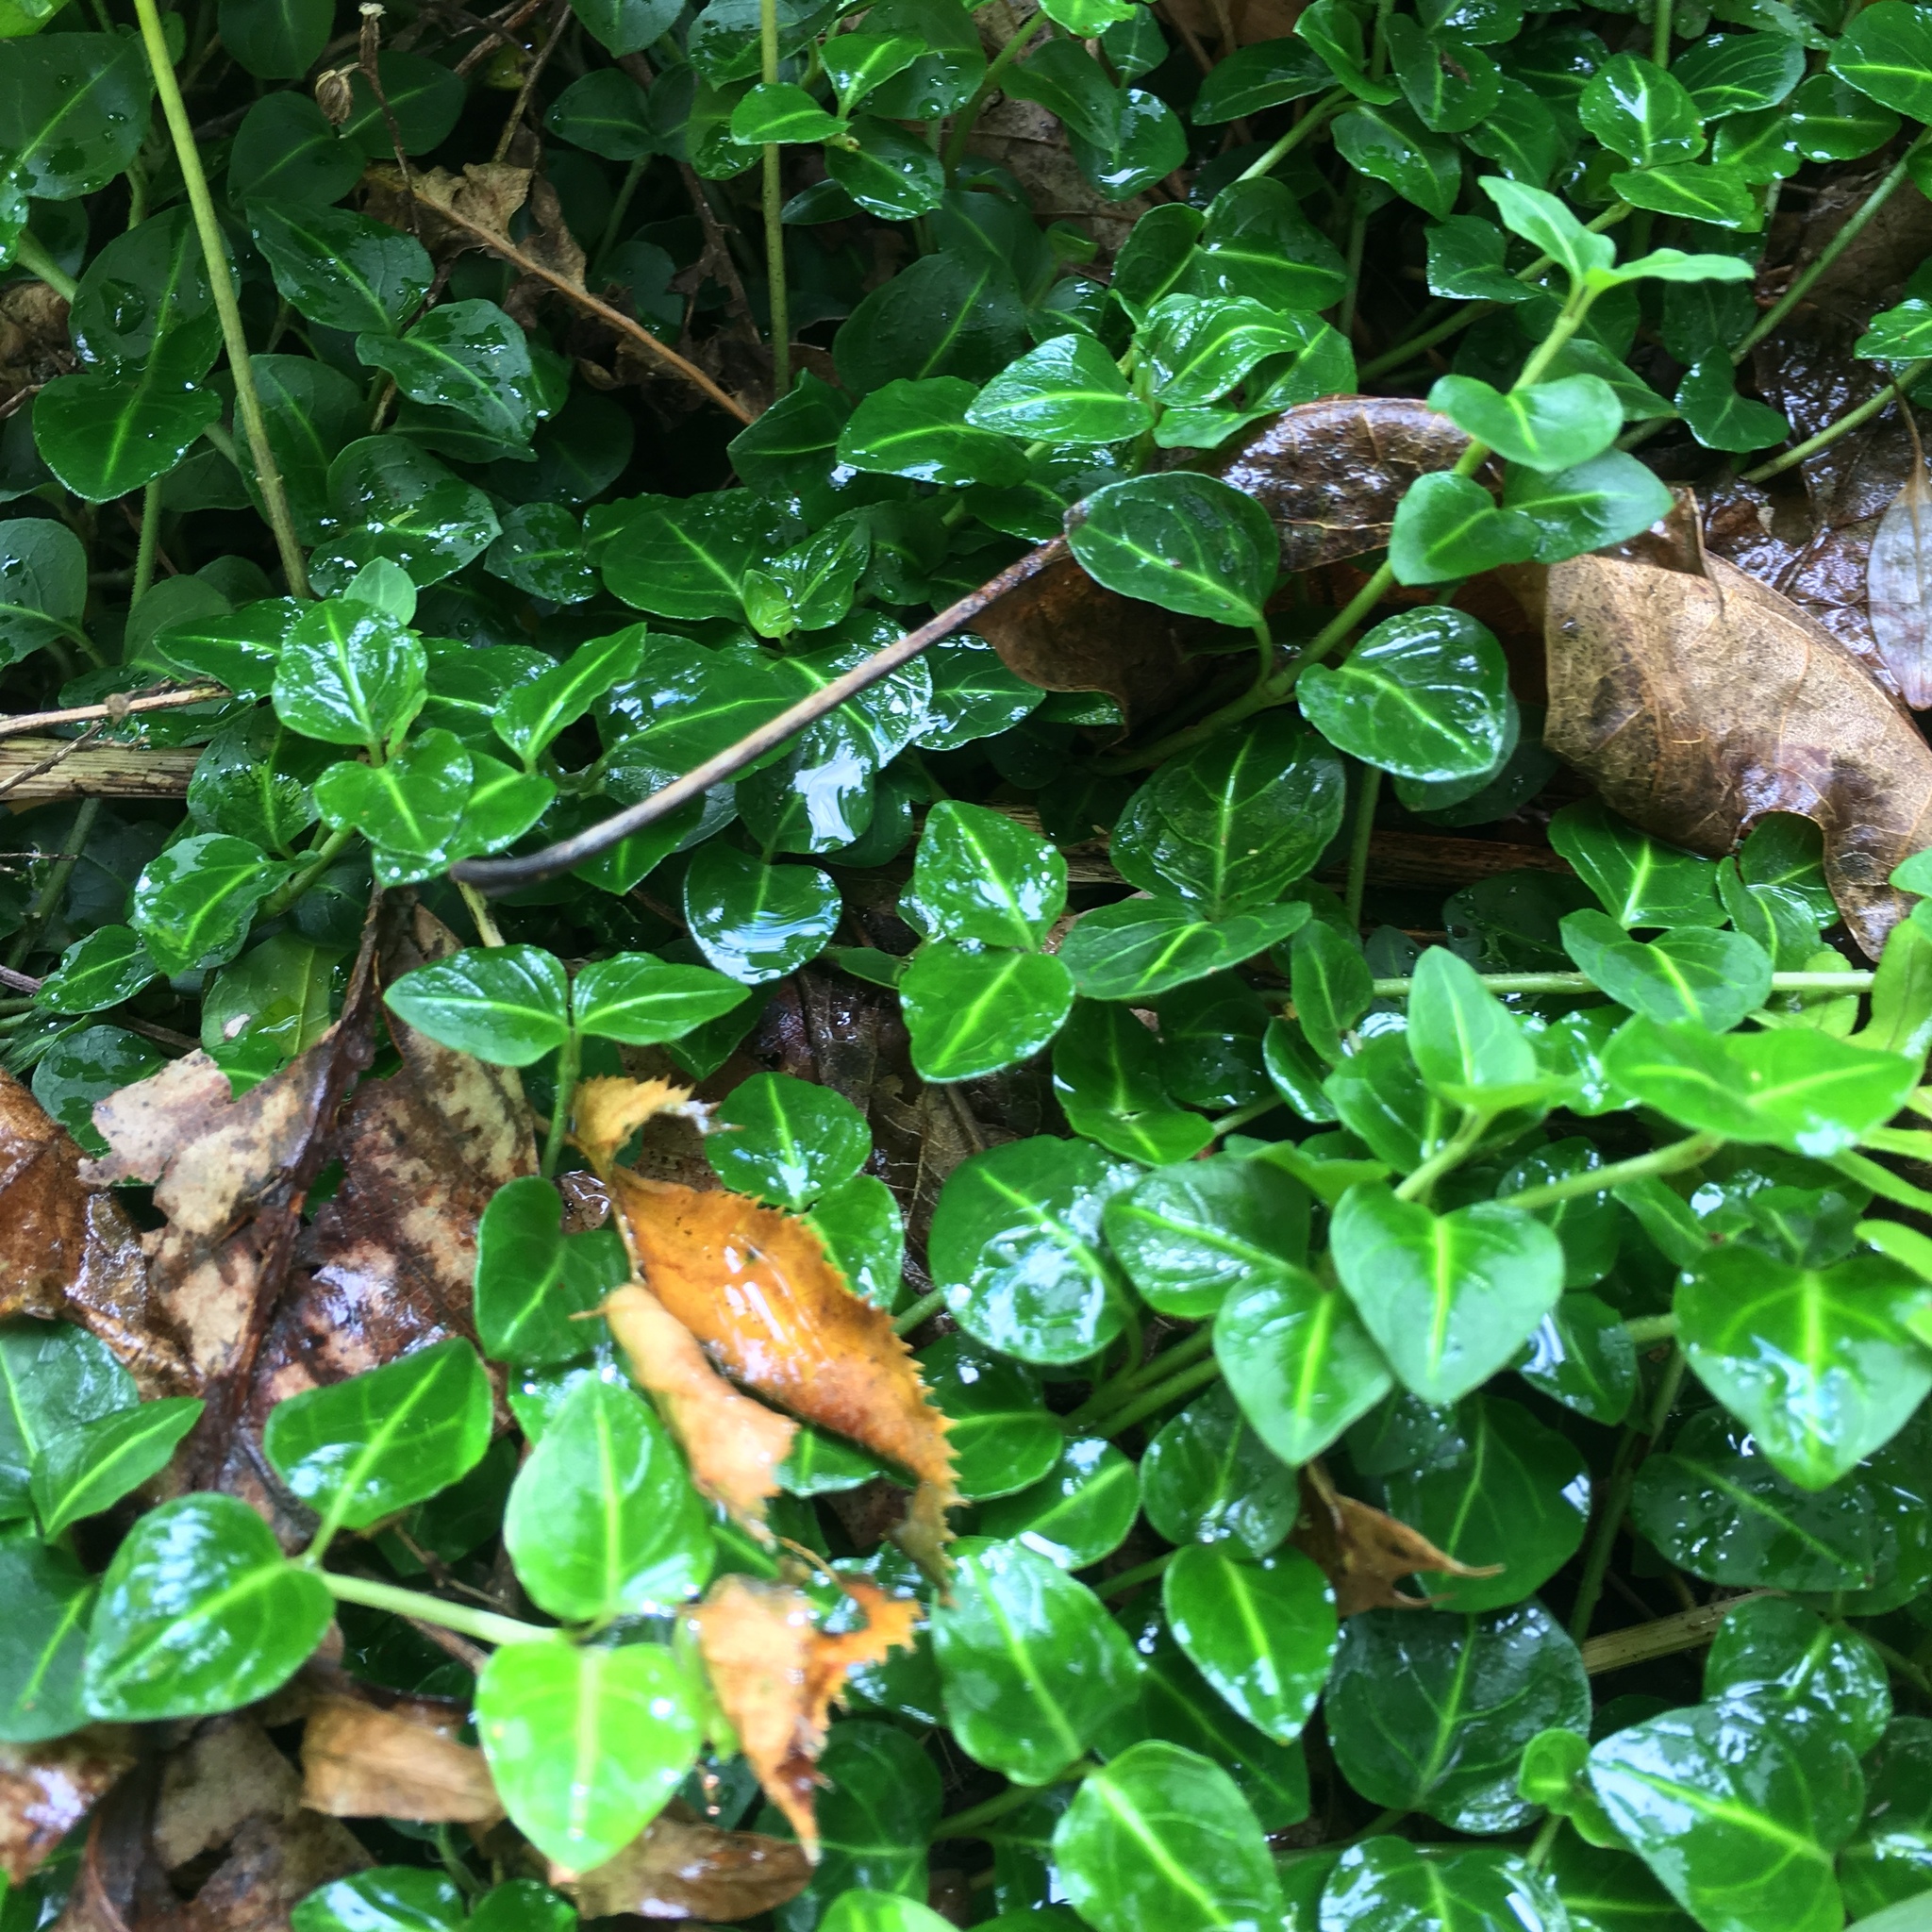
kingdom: Plantae
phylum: Tracheophyta
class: Magnoliopsida
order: Gentianales
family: Rubiaceae
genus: Mitchella
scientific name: Mitchella repens
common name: Partridge-berry
